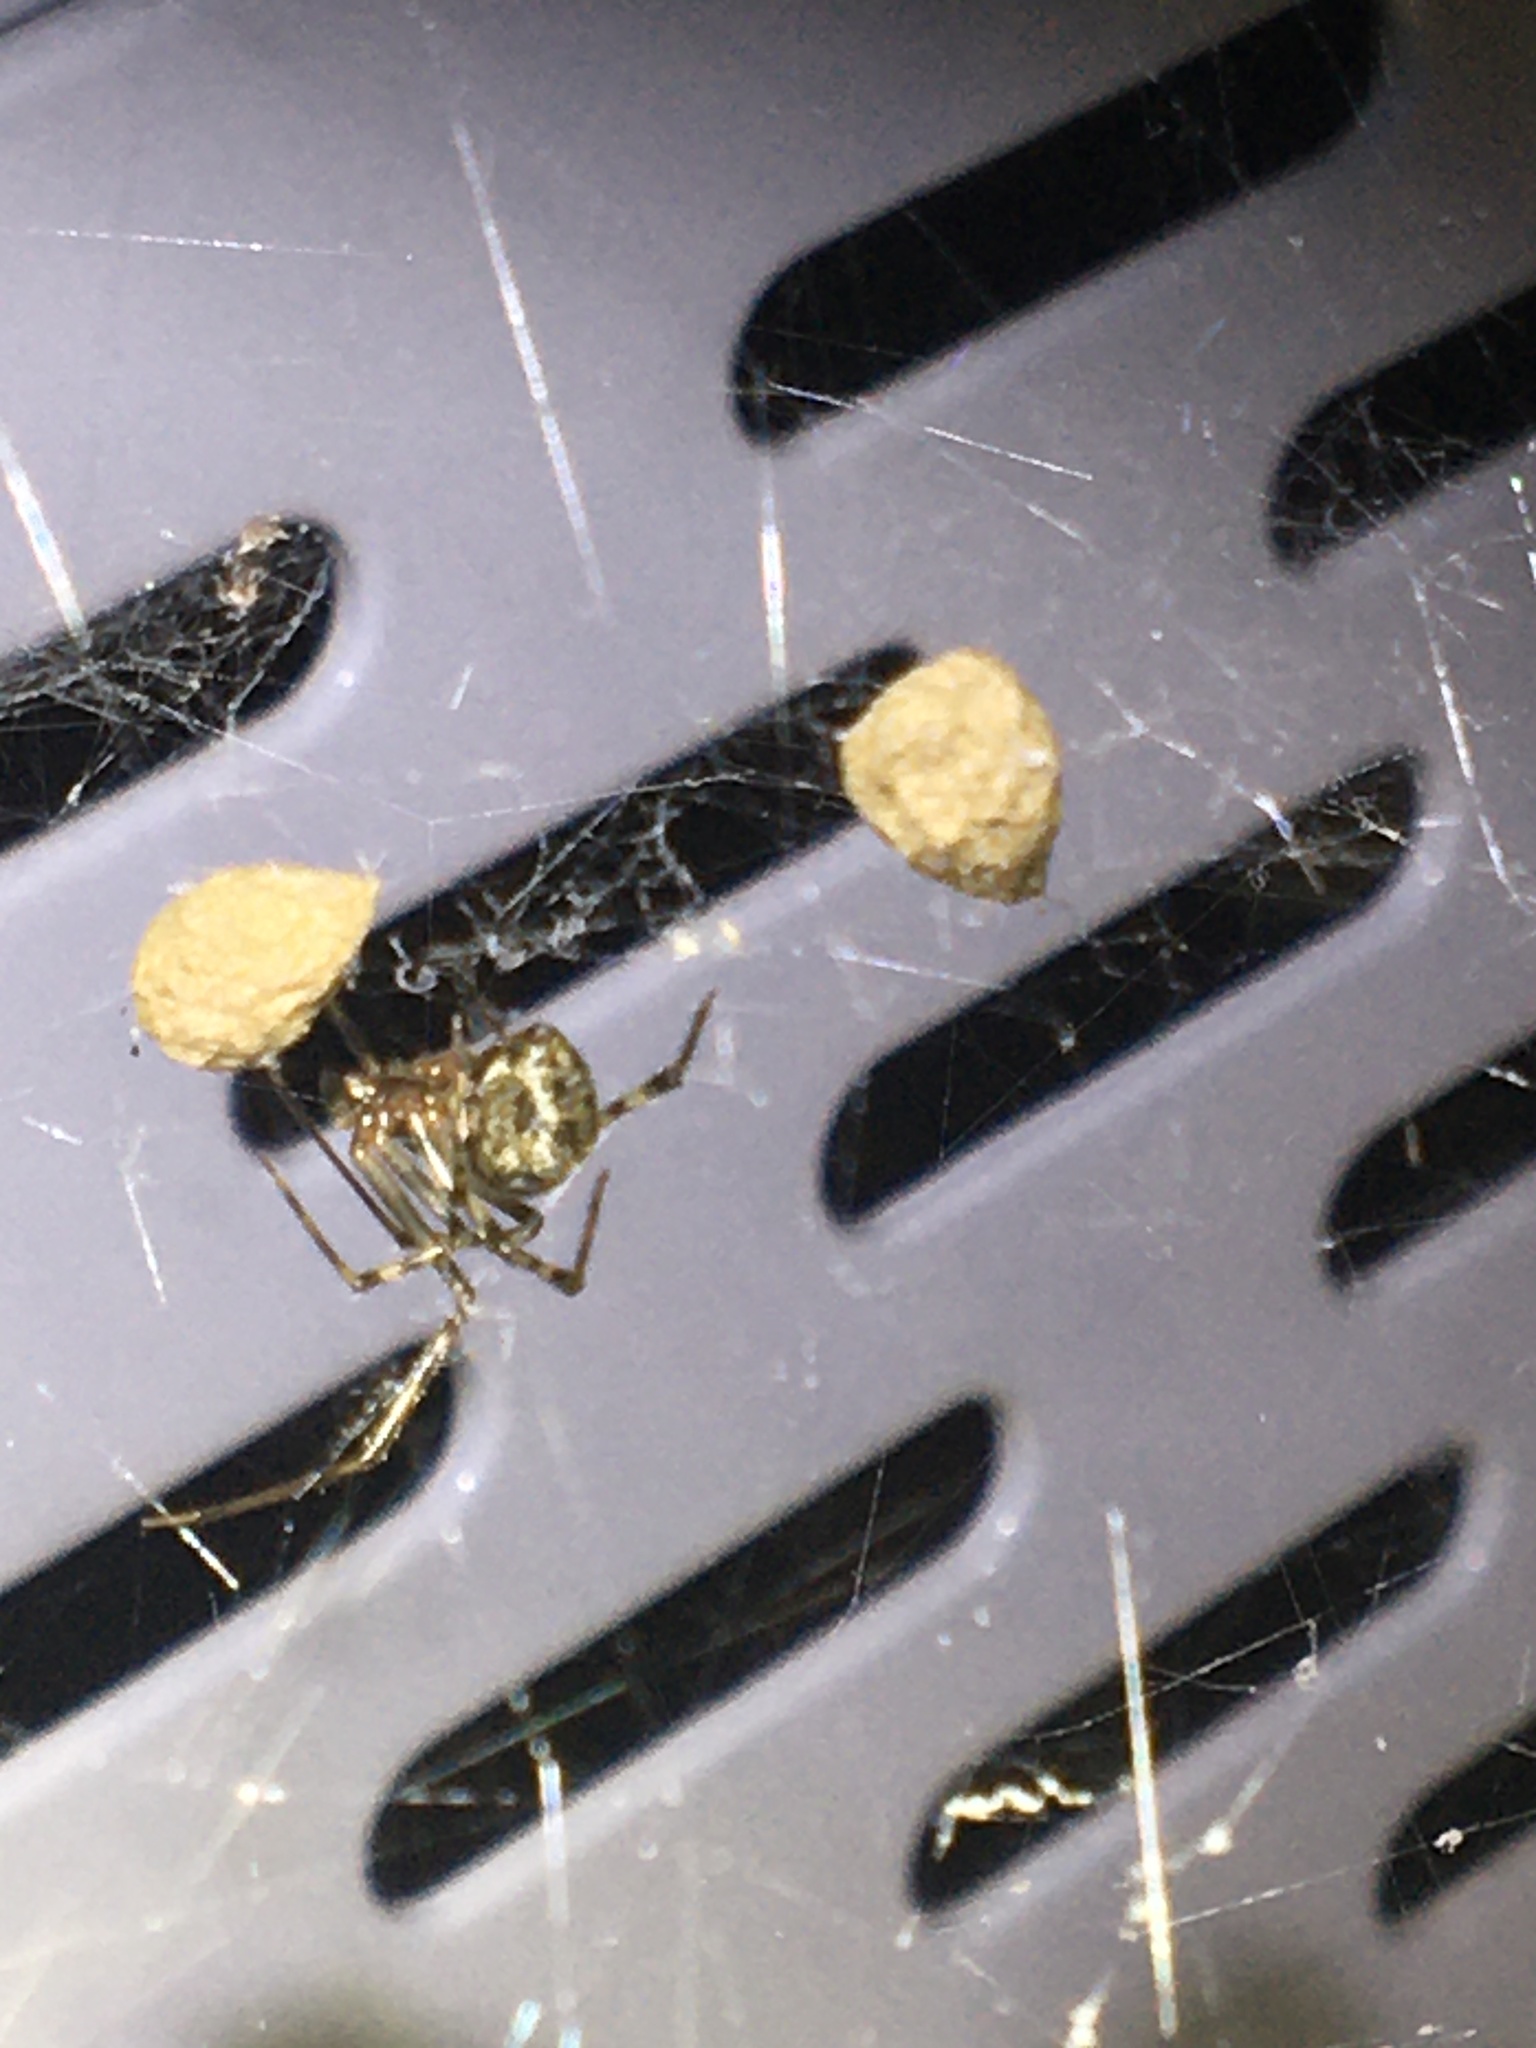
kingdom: Animalia
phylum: Arthropoda
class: Arachnida
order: Araneae
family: Theridiidae
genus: Parasteatoda
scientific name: Parasteatoda tepidariorum
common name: Common house spider
